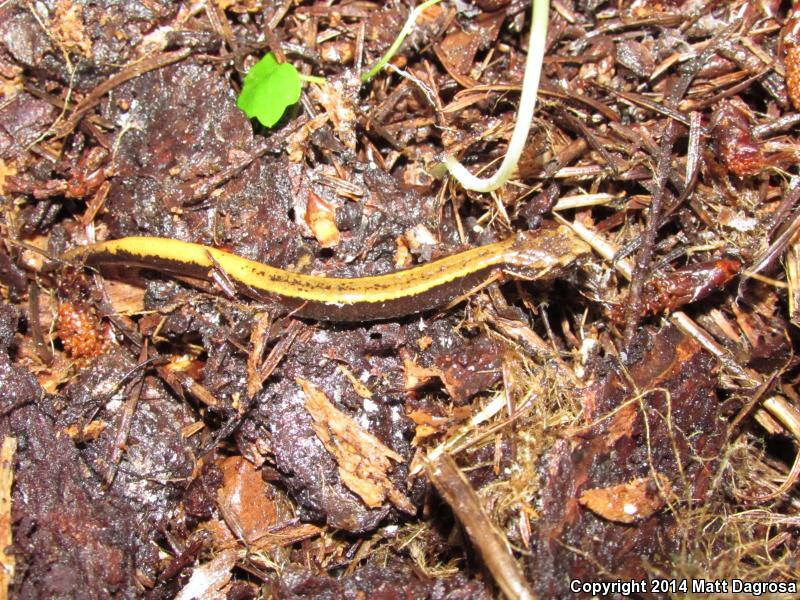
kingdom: Animalia
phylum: Chordata
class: Amphibia
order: Caudata
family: Plethodontidae
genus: Plethodon
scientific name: Plethodon vehiculum
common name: Western red-backed salamander
